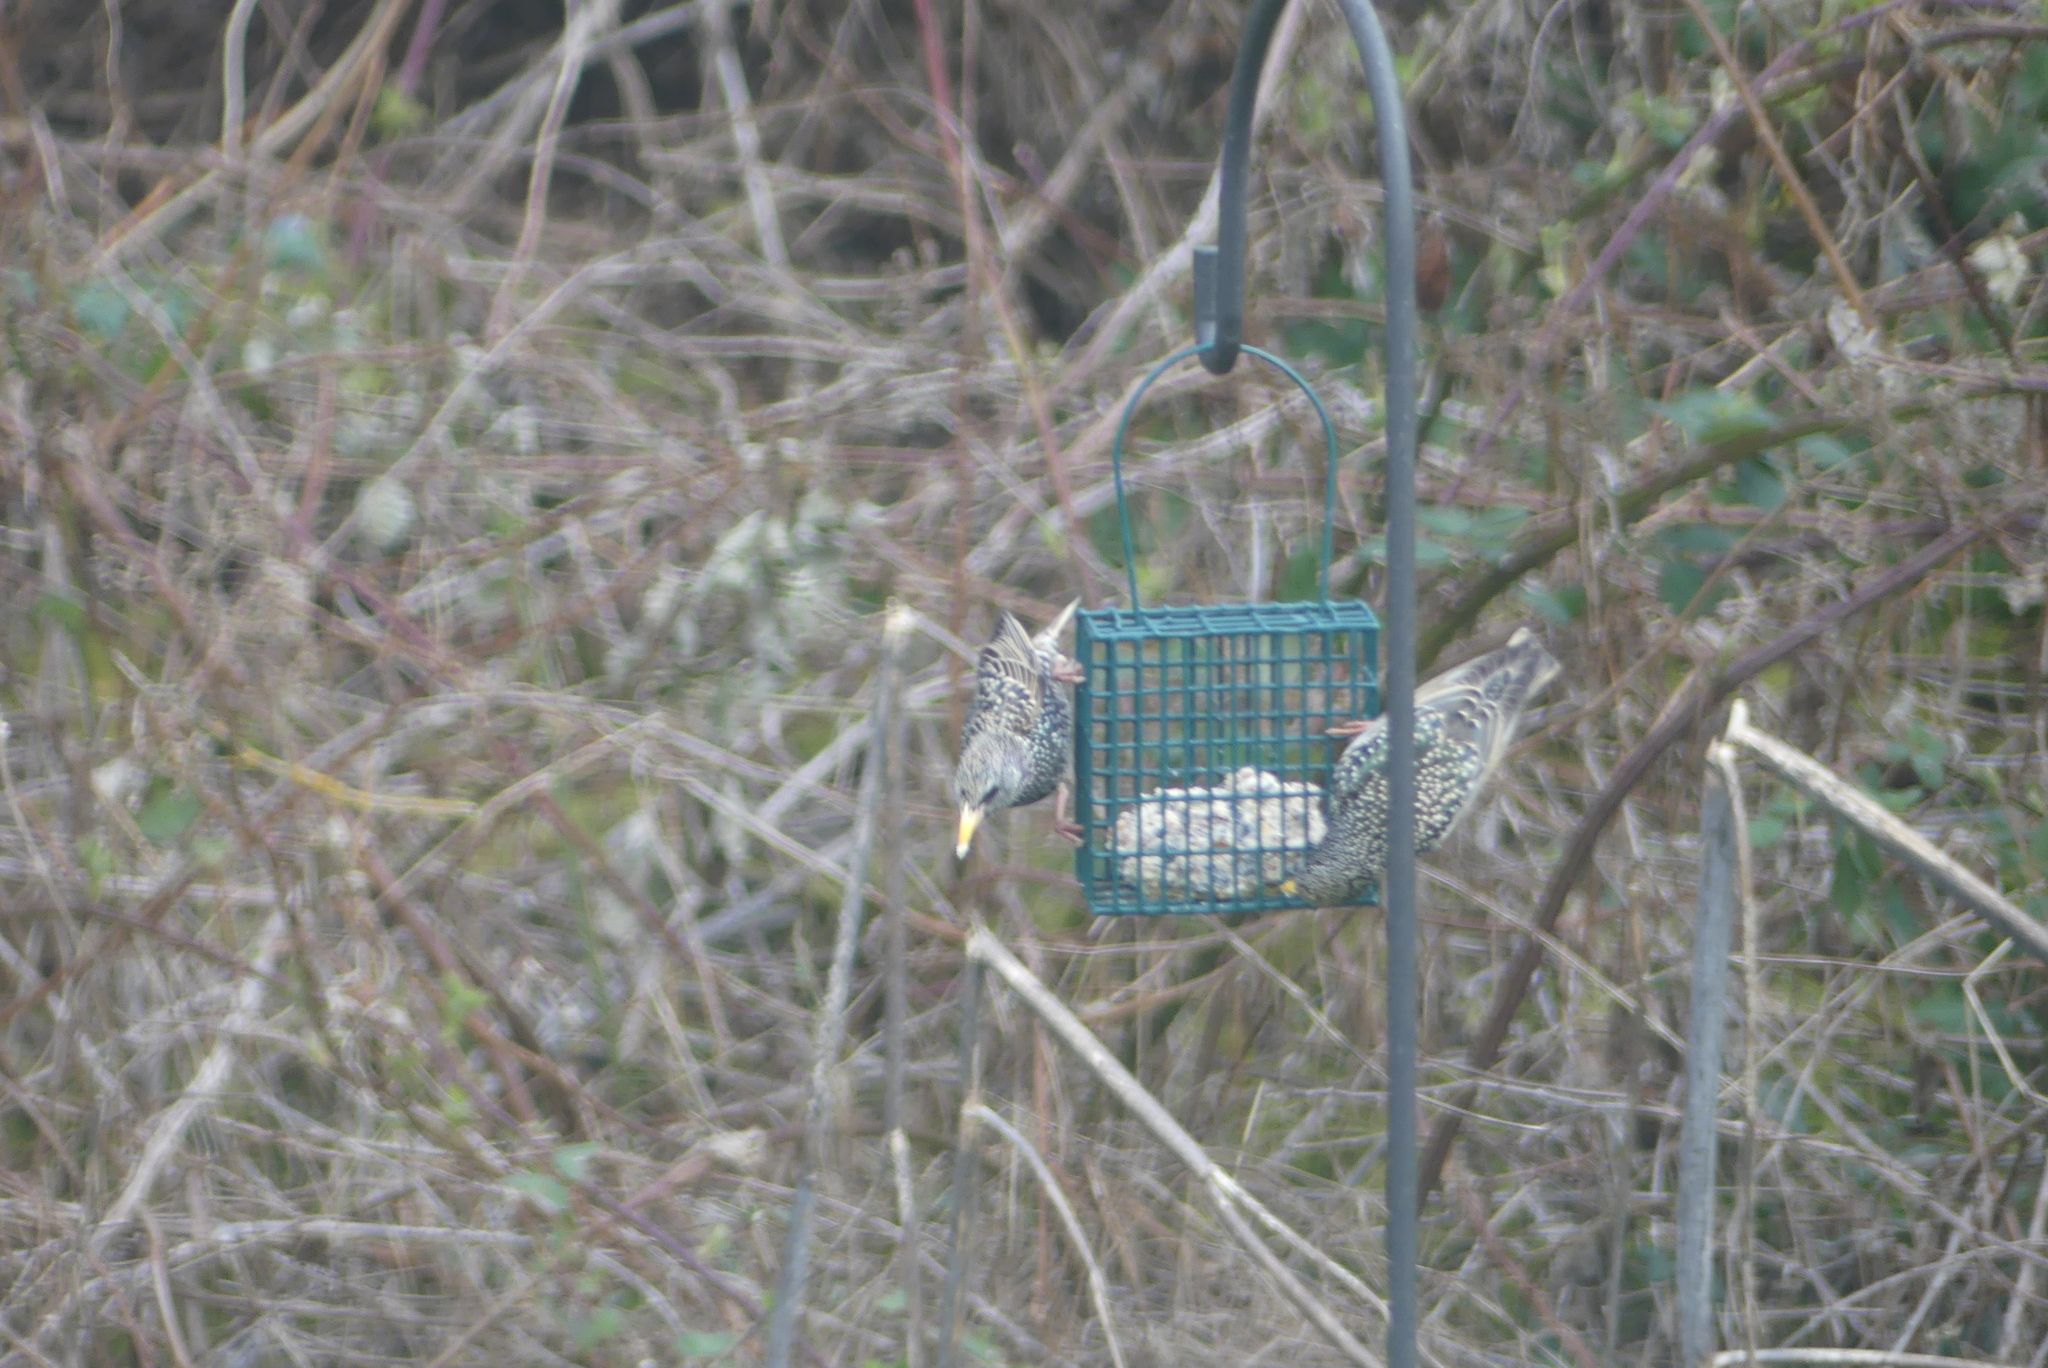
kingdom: Animalia
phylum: Chordata
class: Aves
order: Passeriformes
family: Sturnidae
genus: Sturnus
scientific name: Sturnus vulgaris
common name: Common starling
